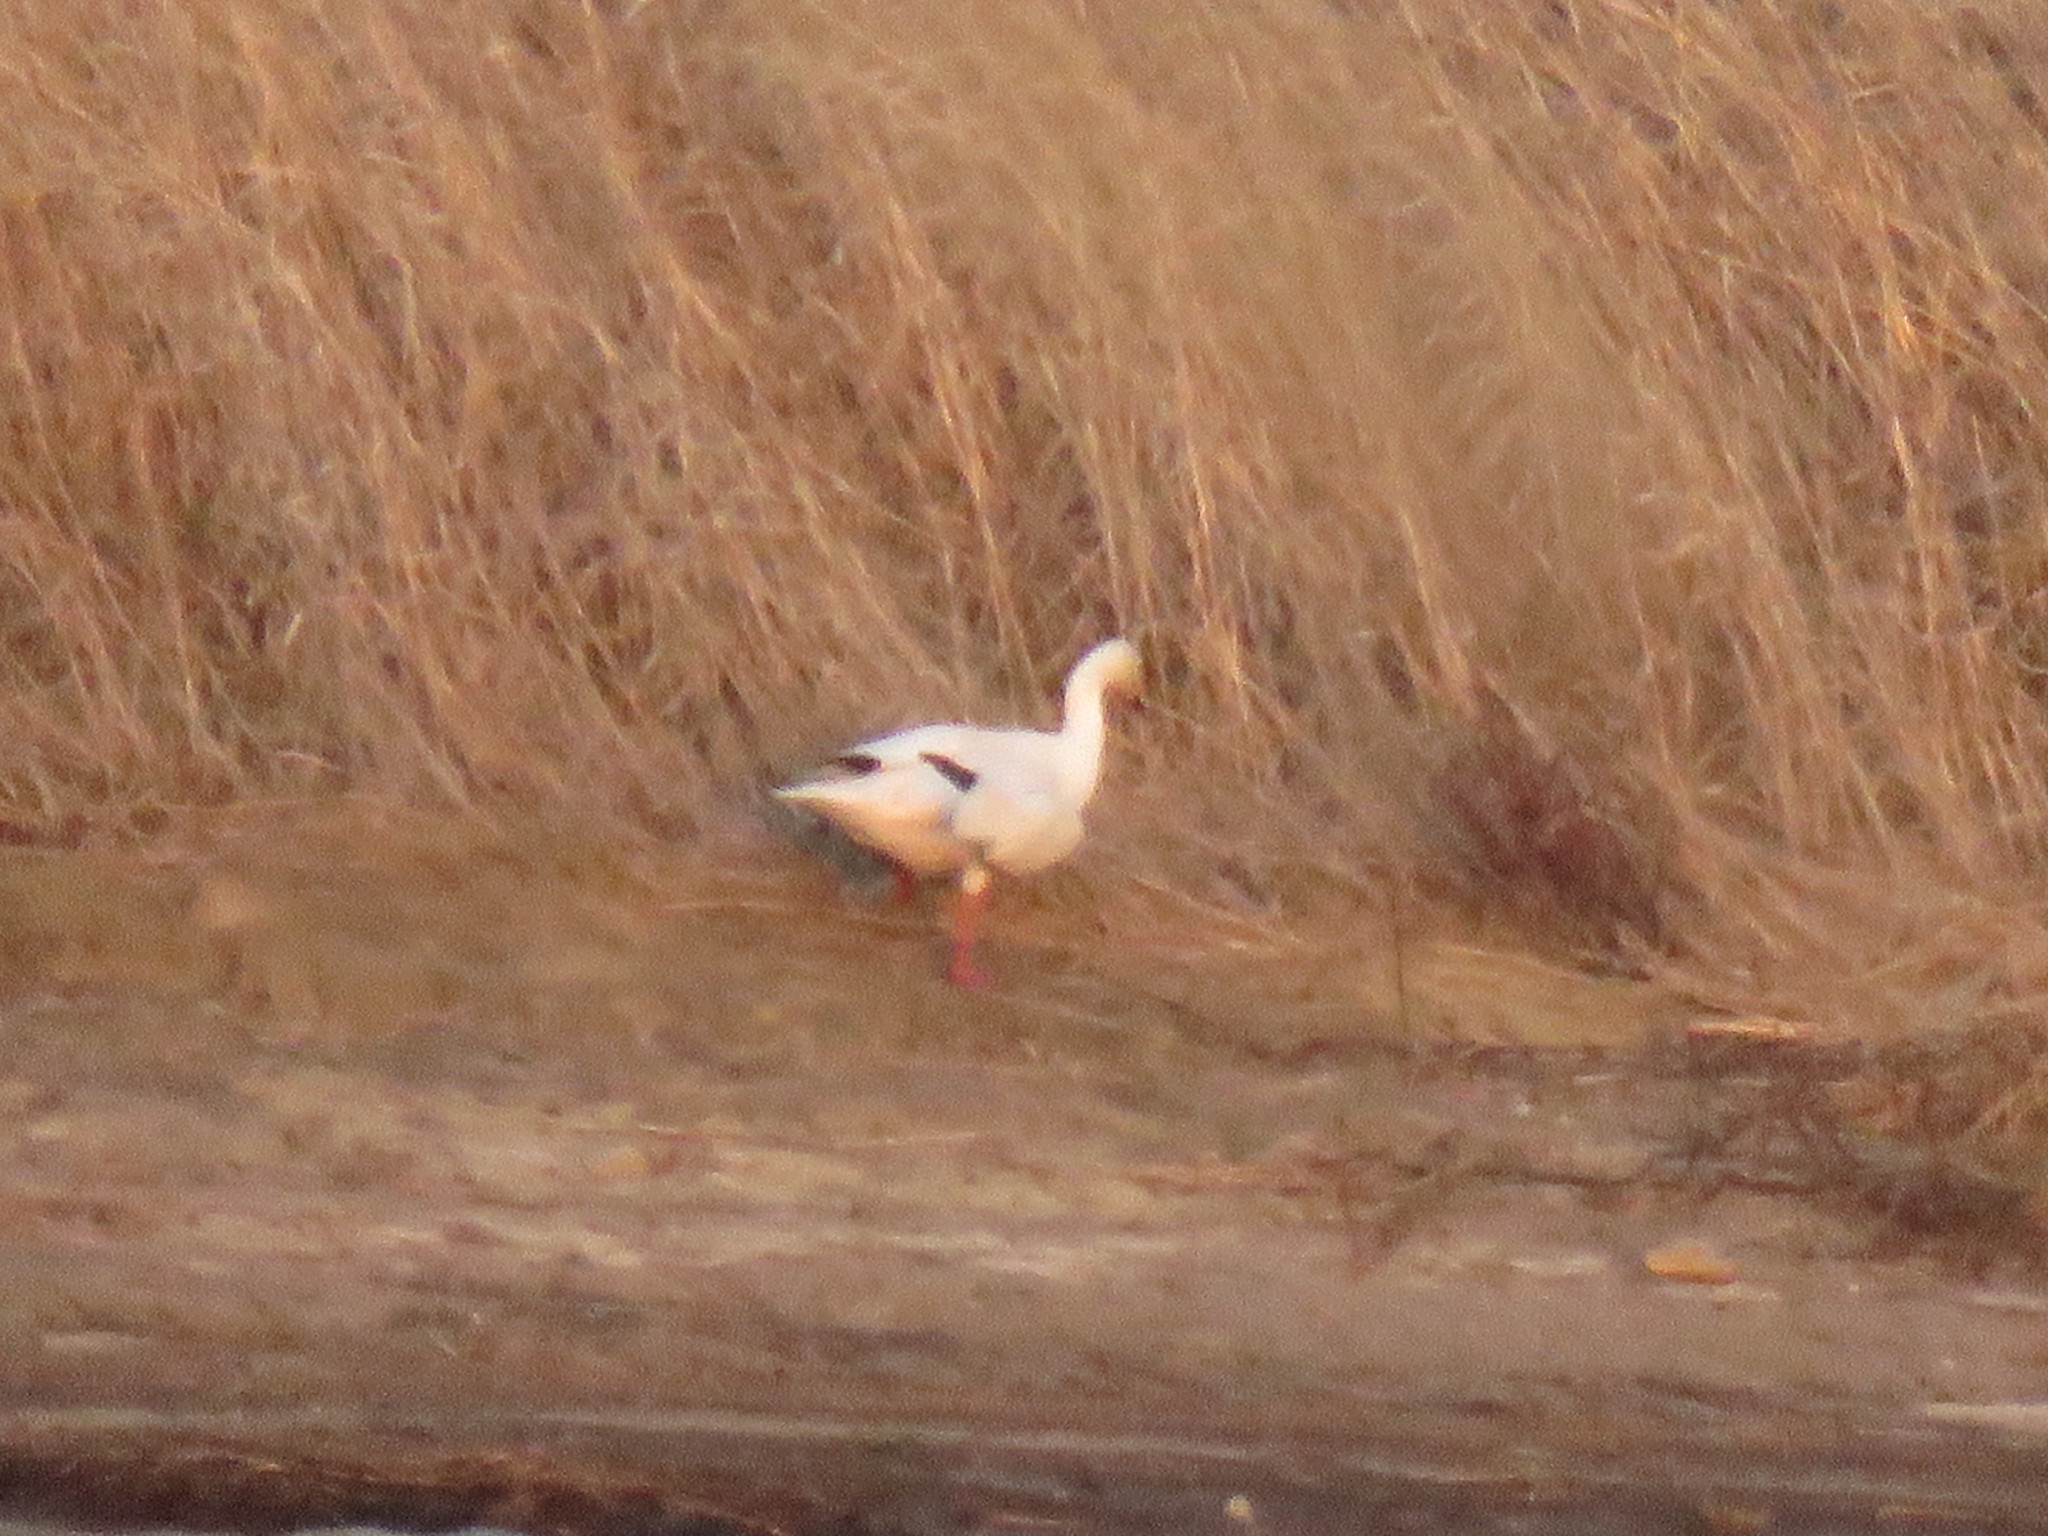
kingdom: Animalia
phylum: Chordata
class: Aves
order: Anseriformes
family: Anatidae
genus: Anser
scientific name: Anser caerulescens
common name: Snow goose
